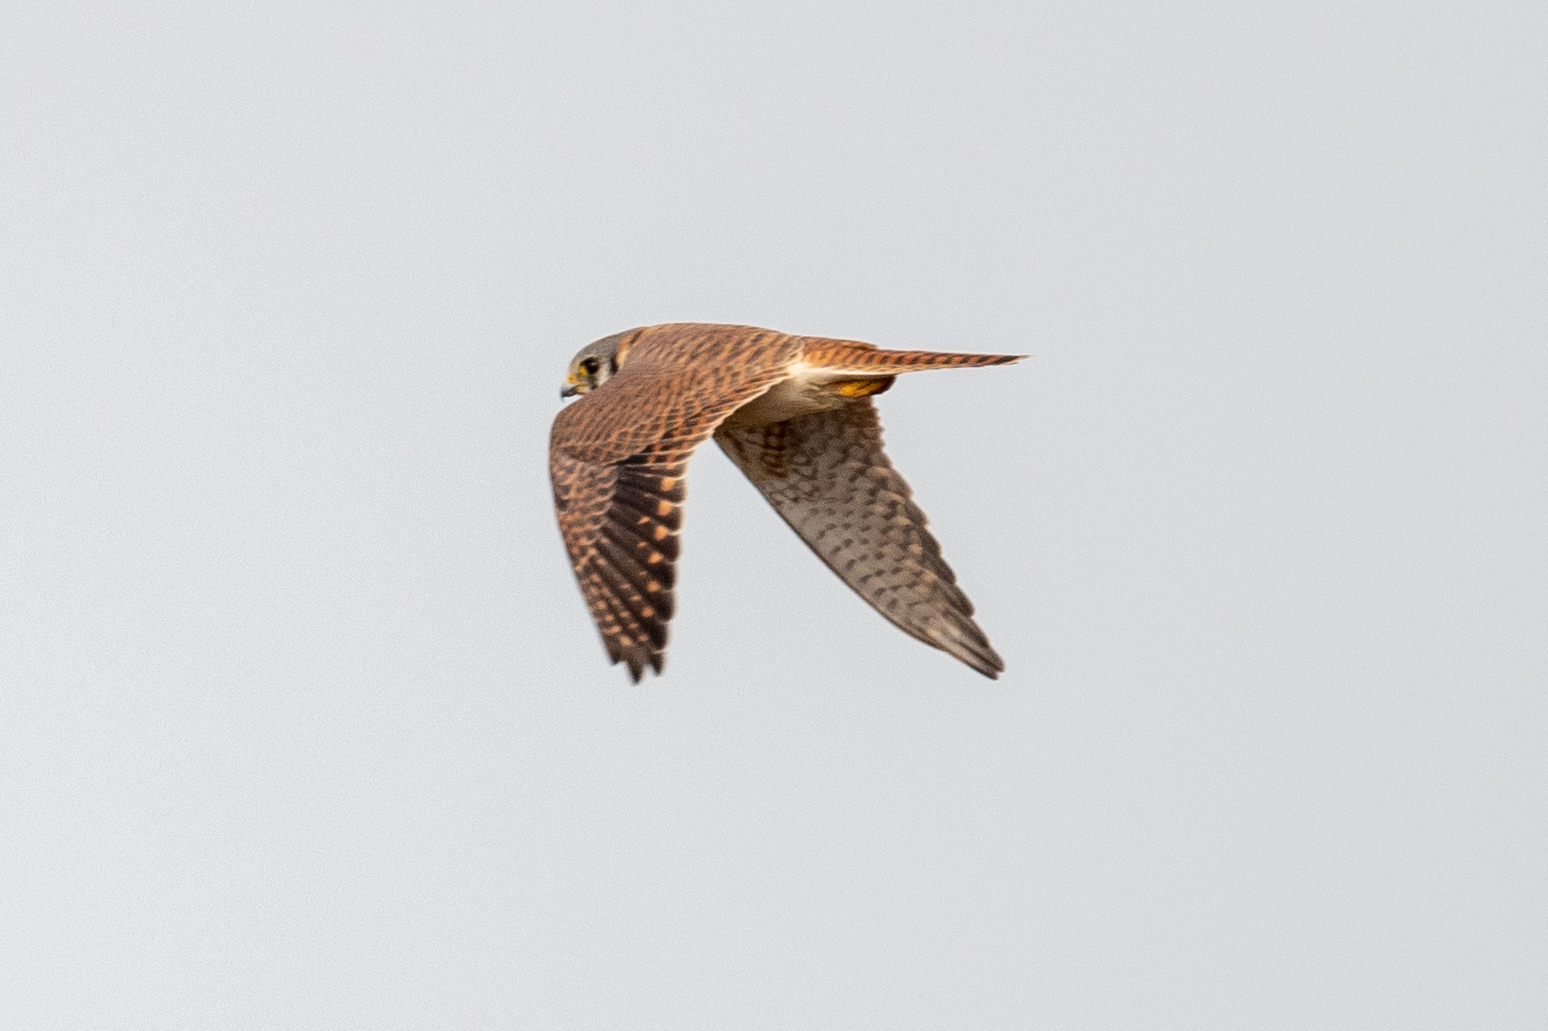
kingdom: Animalia
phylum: Chordata
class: Aves
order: Falconiformes
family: Falconidae
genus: Falco
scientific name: Falco sparverius
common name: American kestrel
